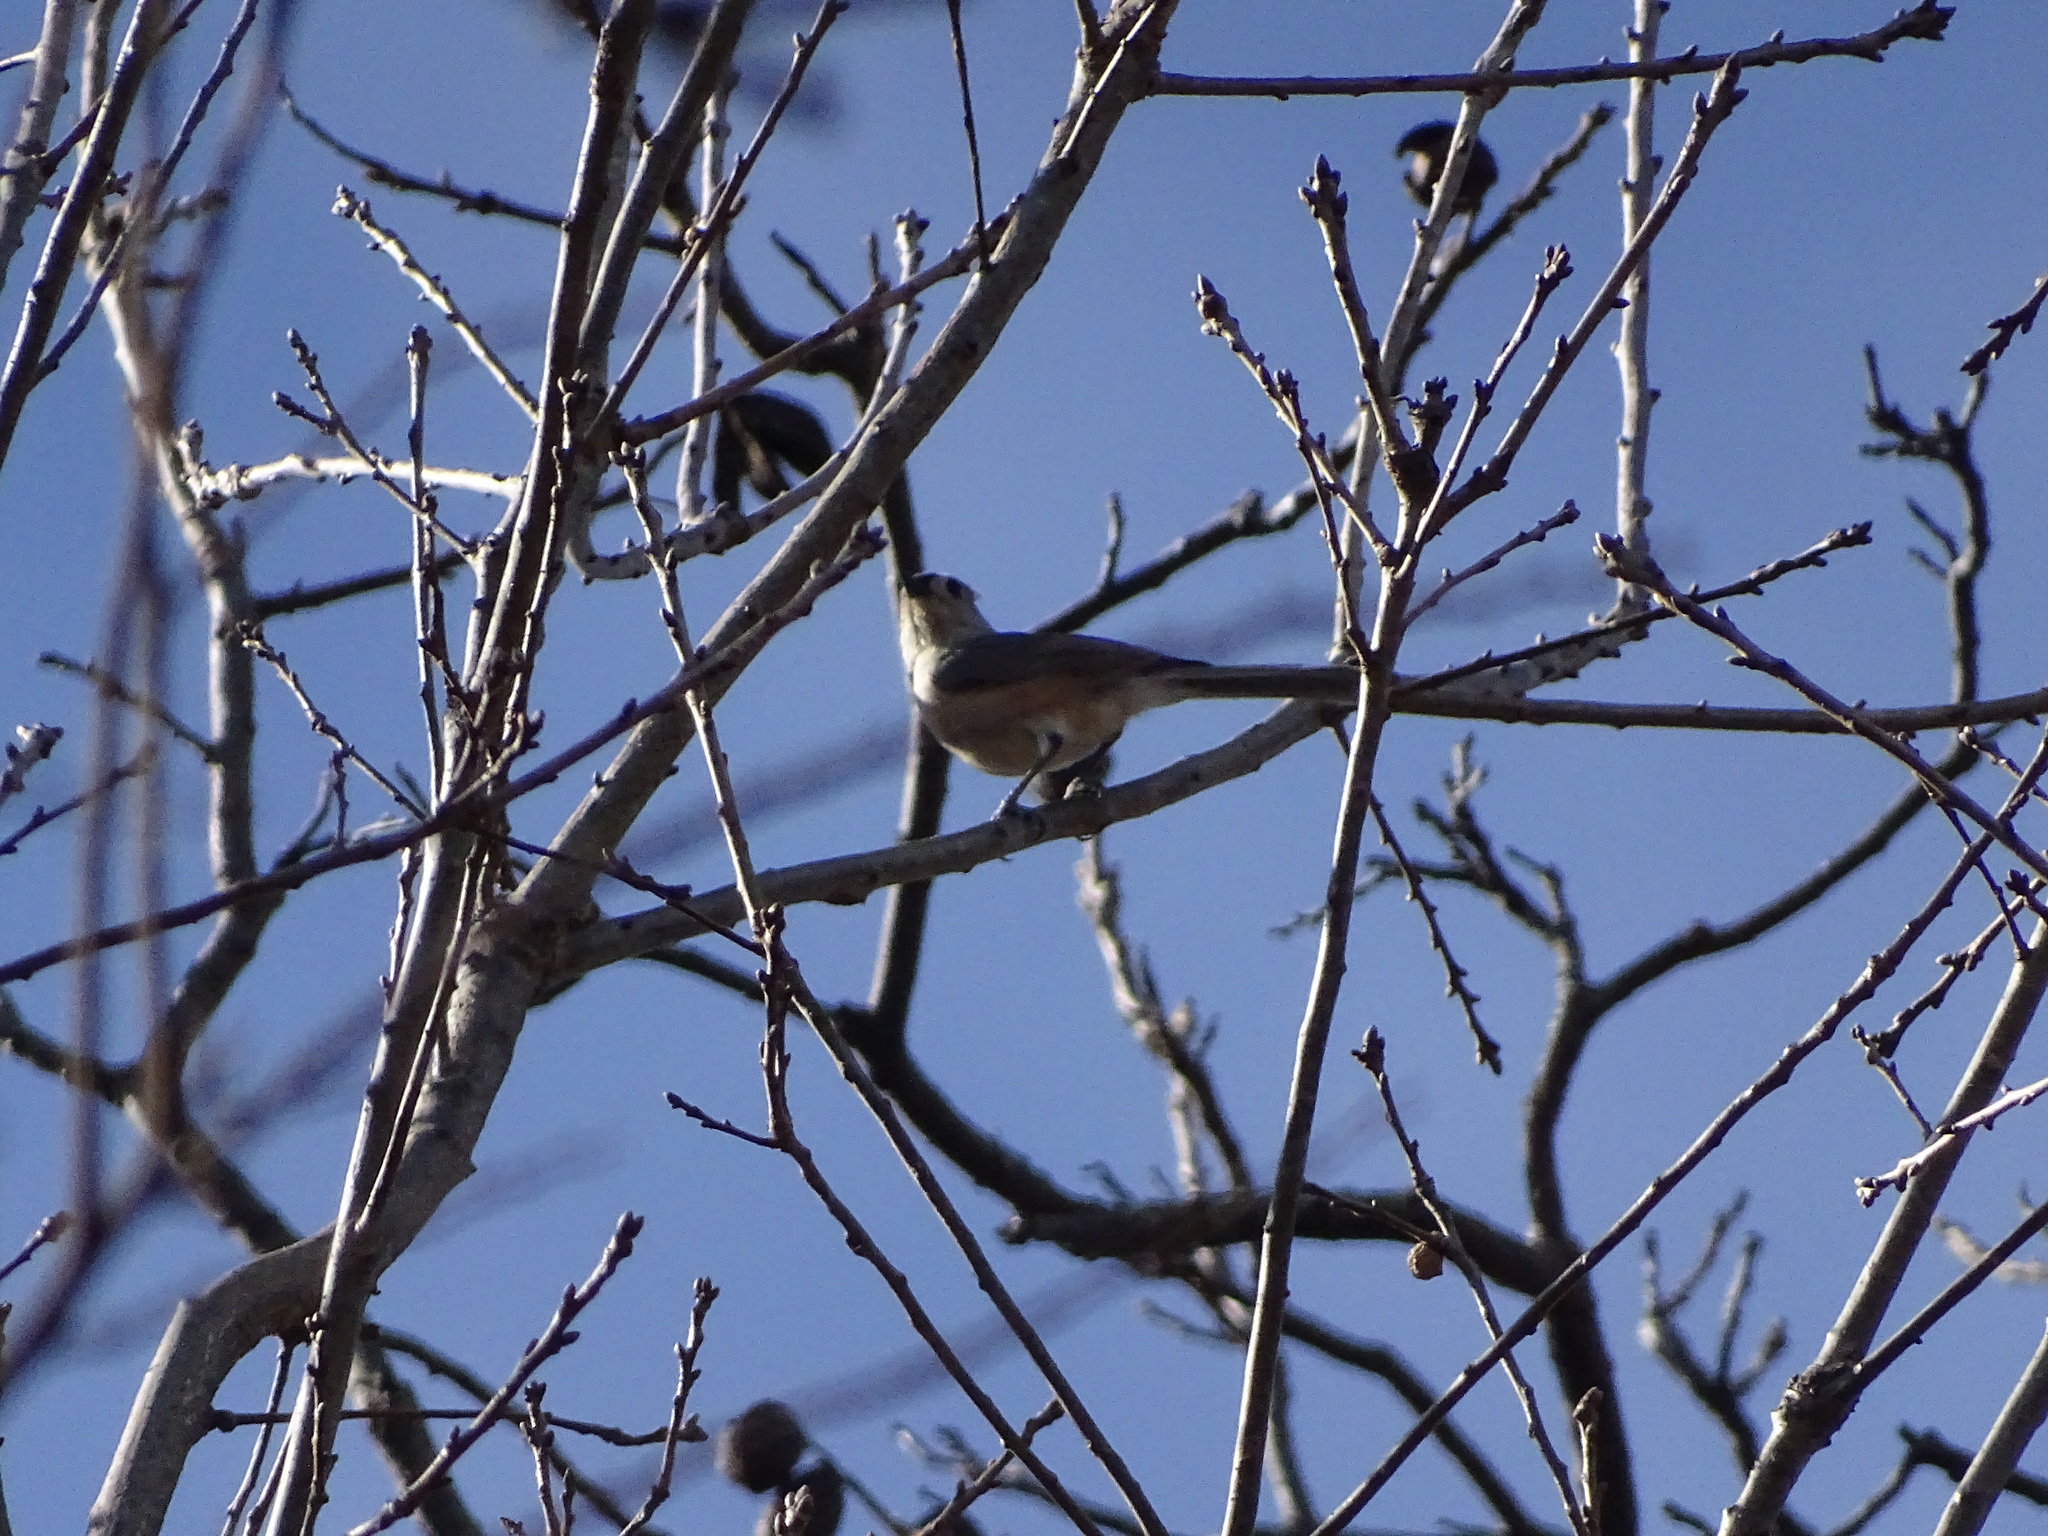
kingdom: Animalia
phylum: Chordata
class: Aves
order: Passeriformes
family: Paridae
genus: Baeolophus
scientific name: Baeolophus bicolor
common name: Tufted titmouse
